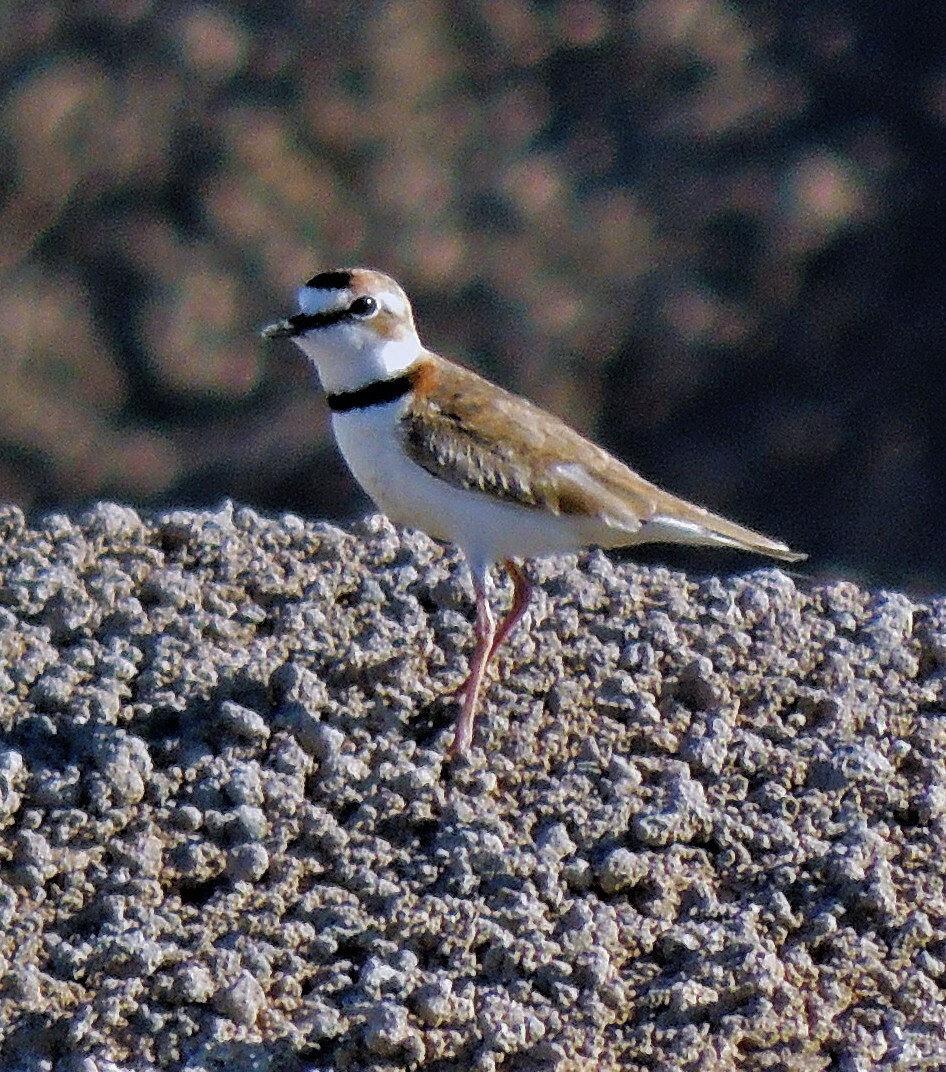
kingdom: Animalia
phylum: Chordata
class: Aves
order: Charadriiformes
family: Charadriidae
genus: Anarhynchus
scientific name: Anarhynchus
